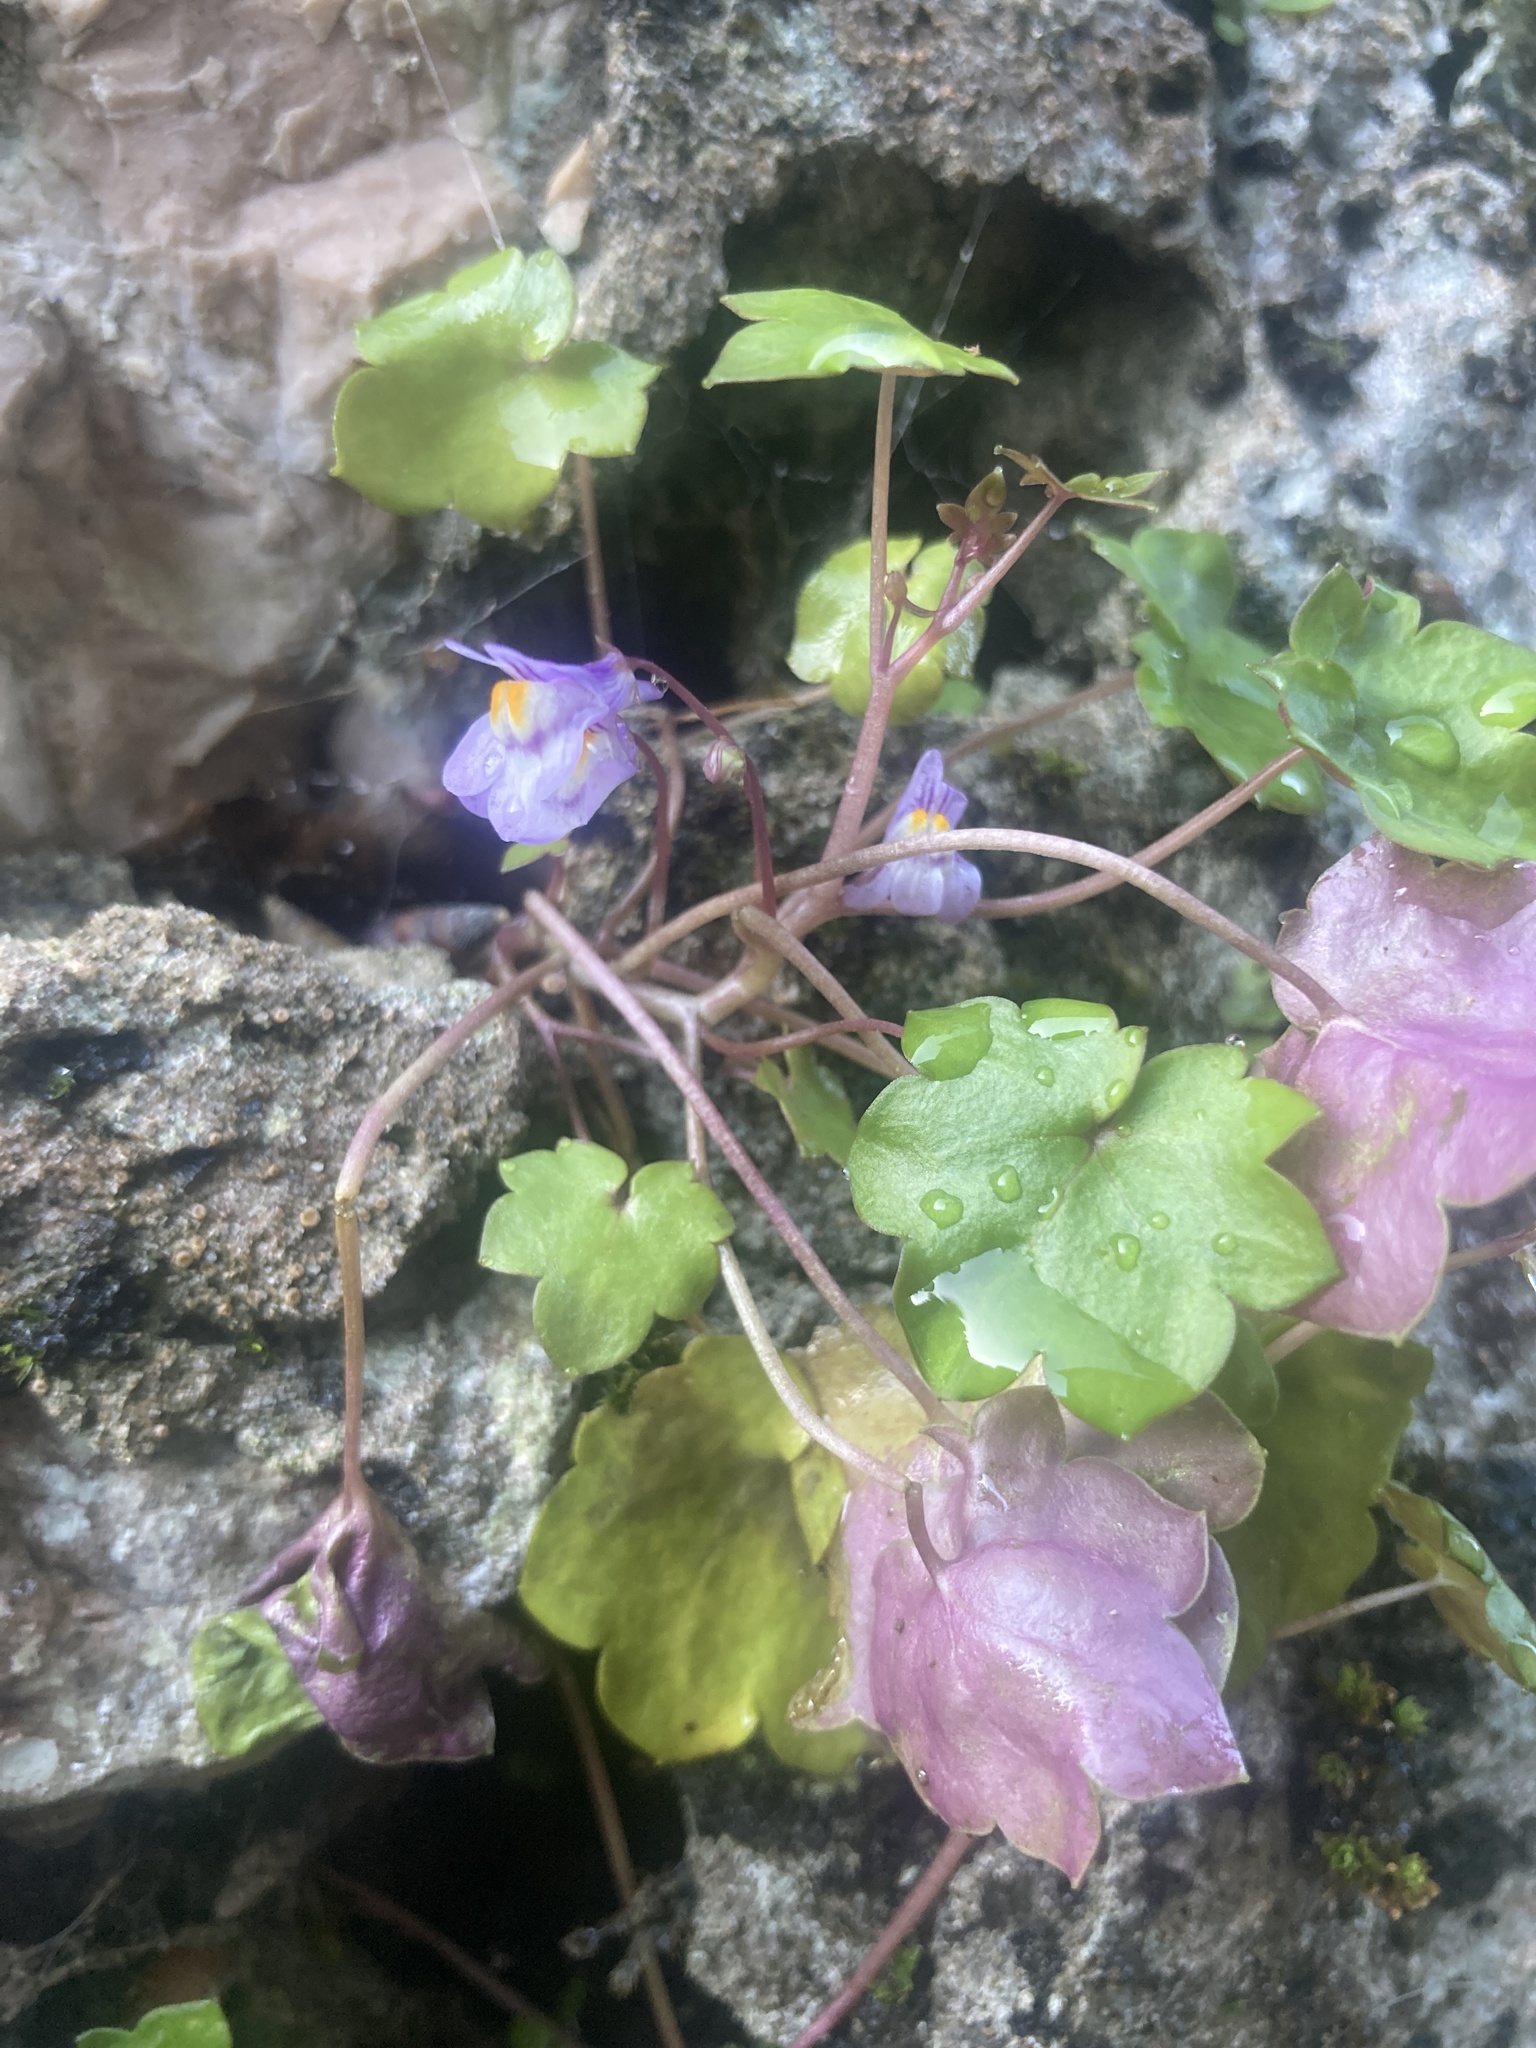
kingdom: Plantae
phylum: Tracheophyta
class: Magnoliopsida
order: Lamiales
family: Plantaginaceae
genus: Cymbalaria
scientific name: Cymbalaria muralis
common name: Ivy-leaved toadflax
